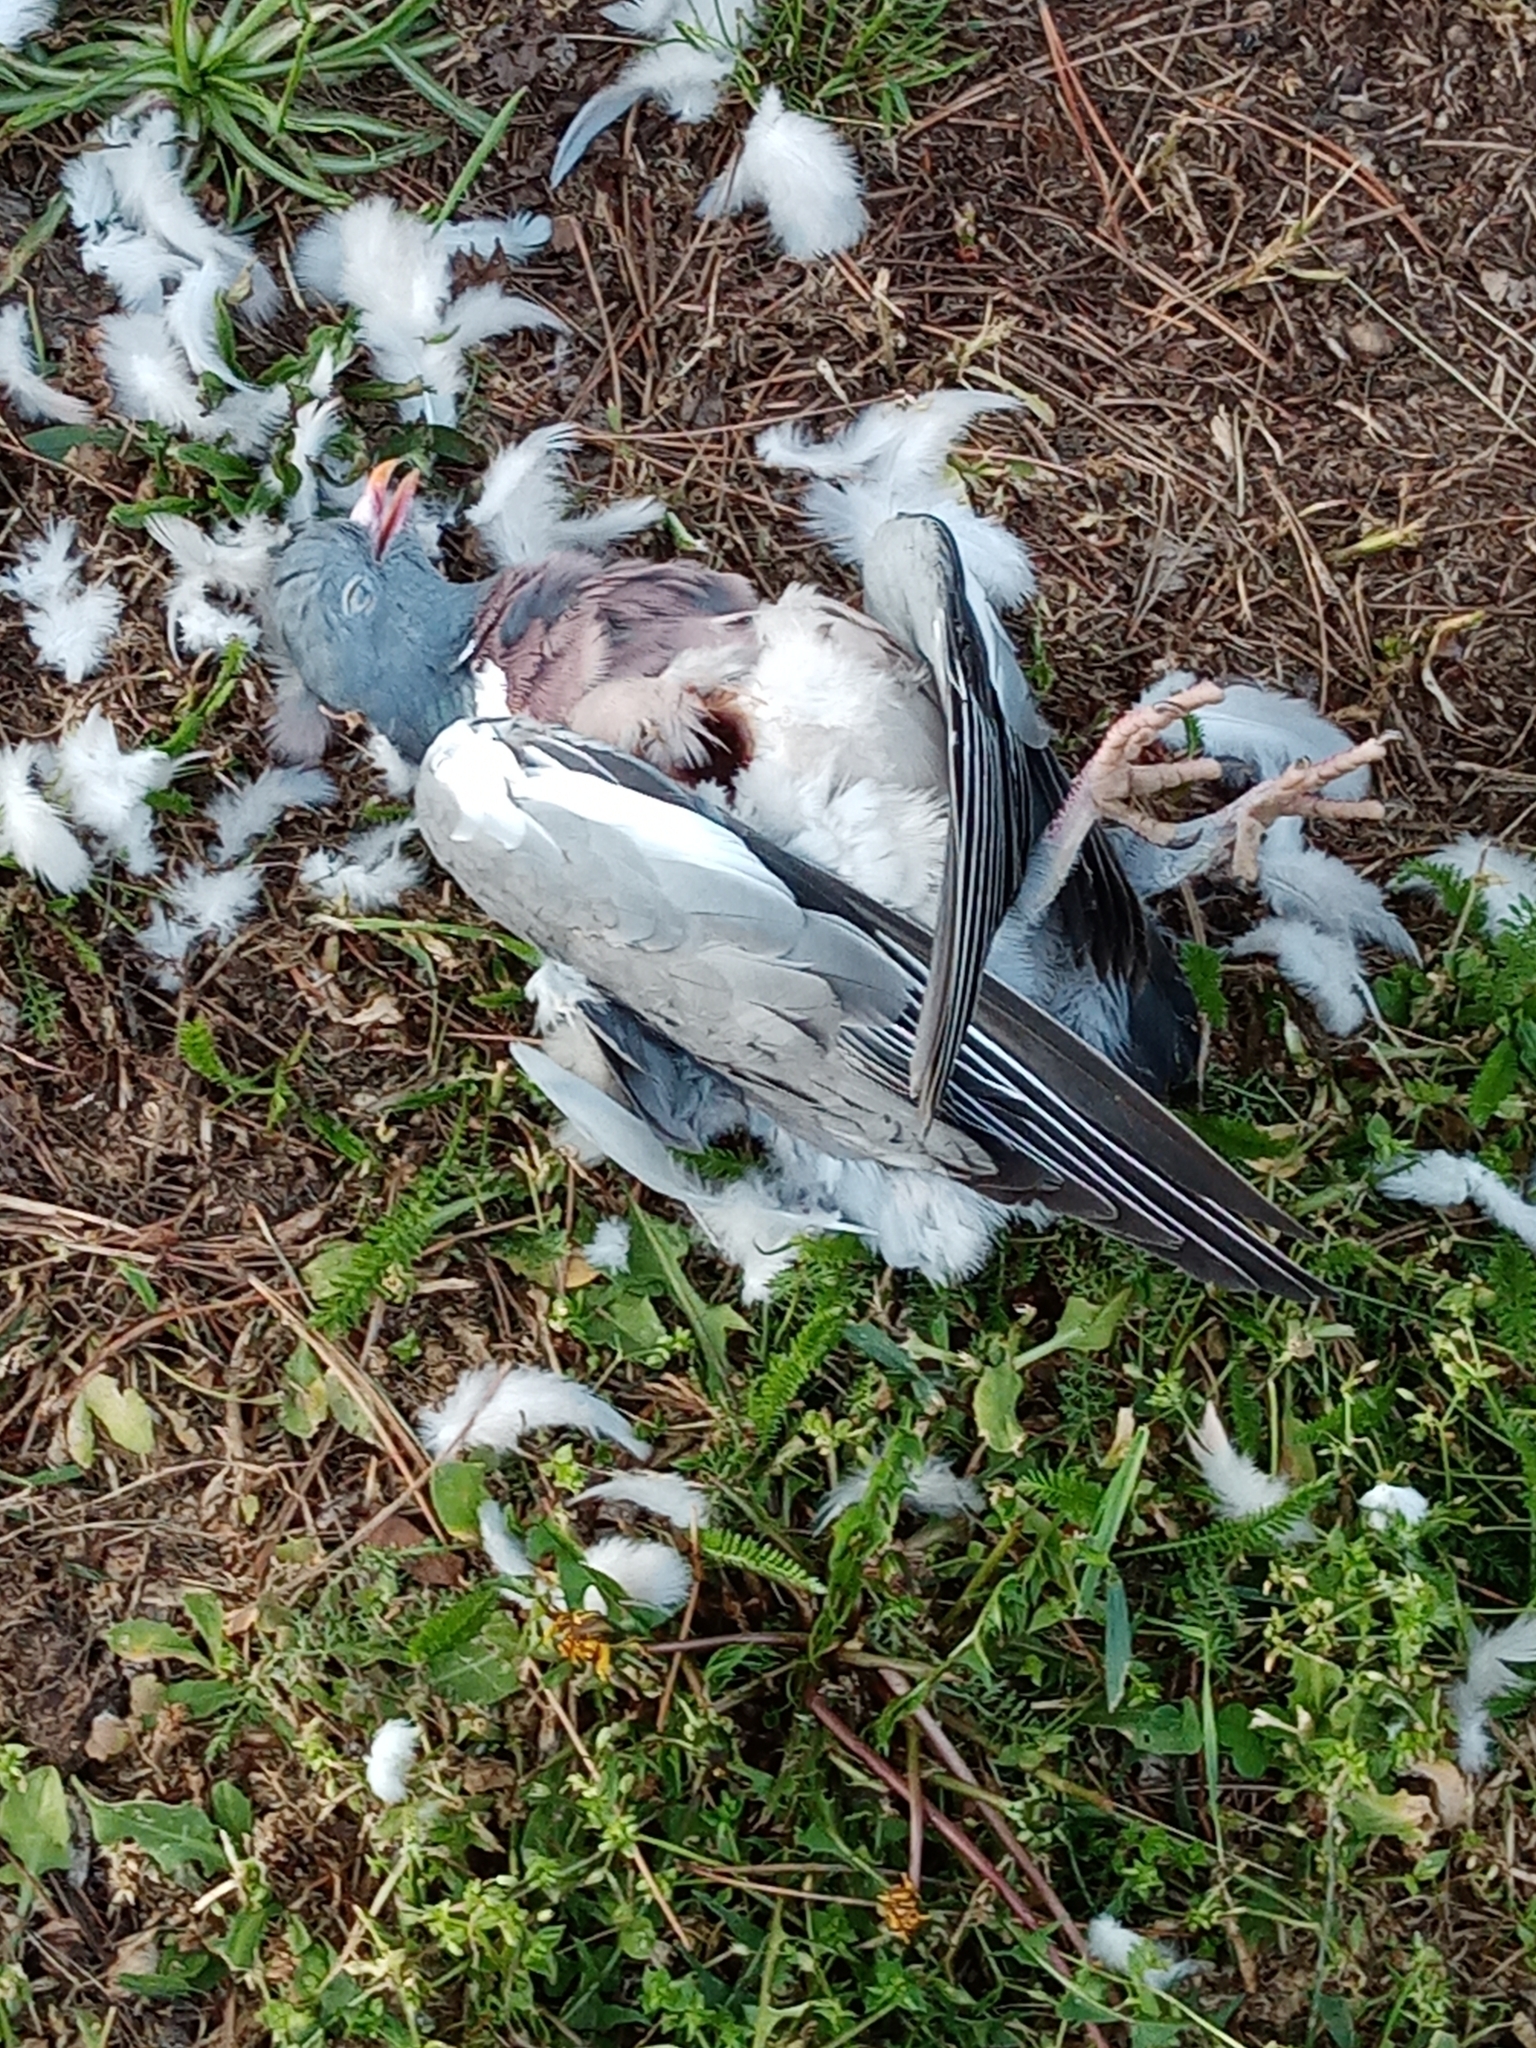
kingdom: Animalia
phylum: Chordata
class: Aves
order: Columbiformes
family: Columbidae
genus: Columba
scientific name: Columba palumbus
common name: Common wood pigeon
